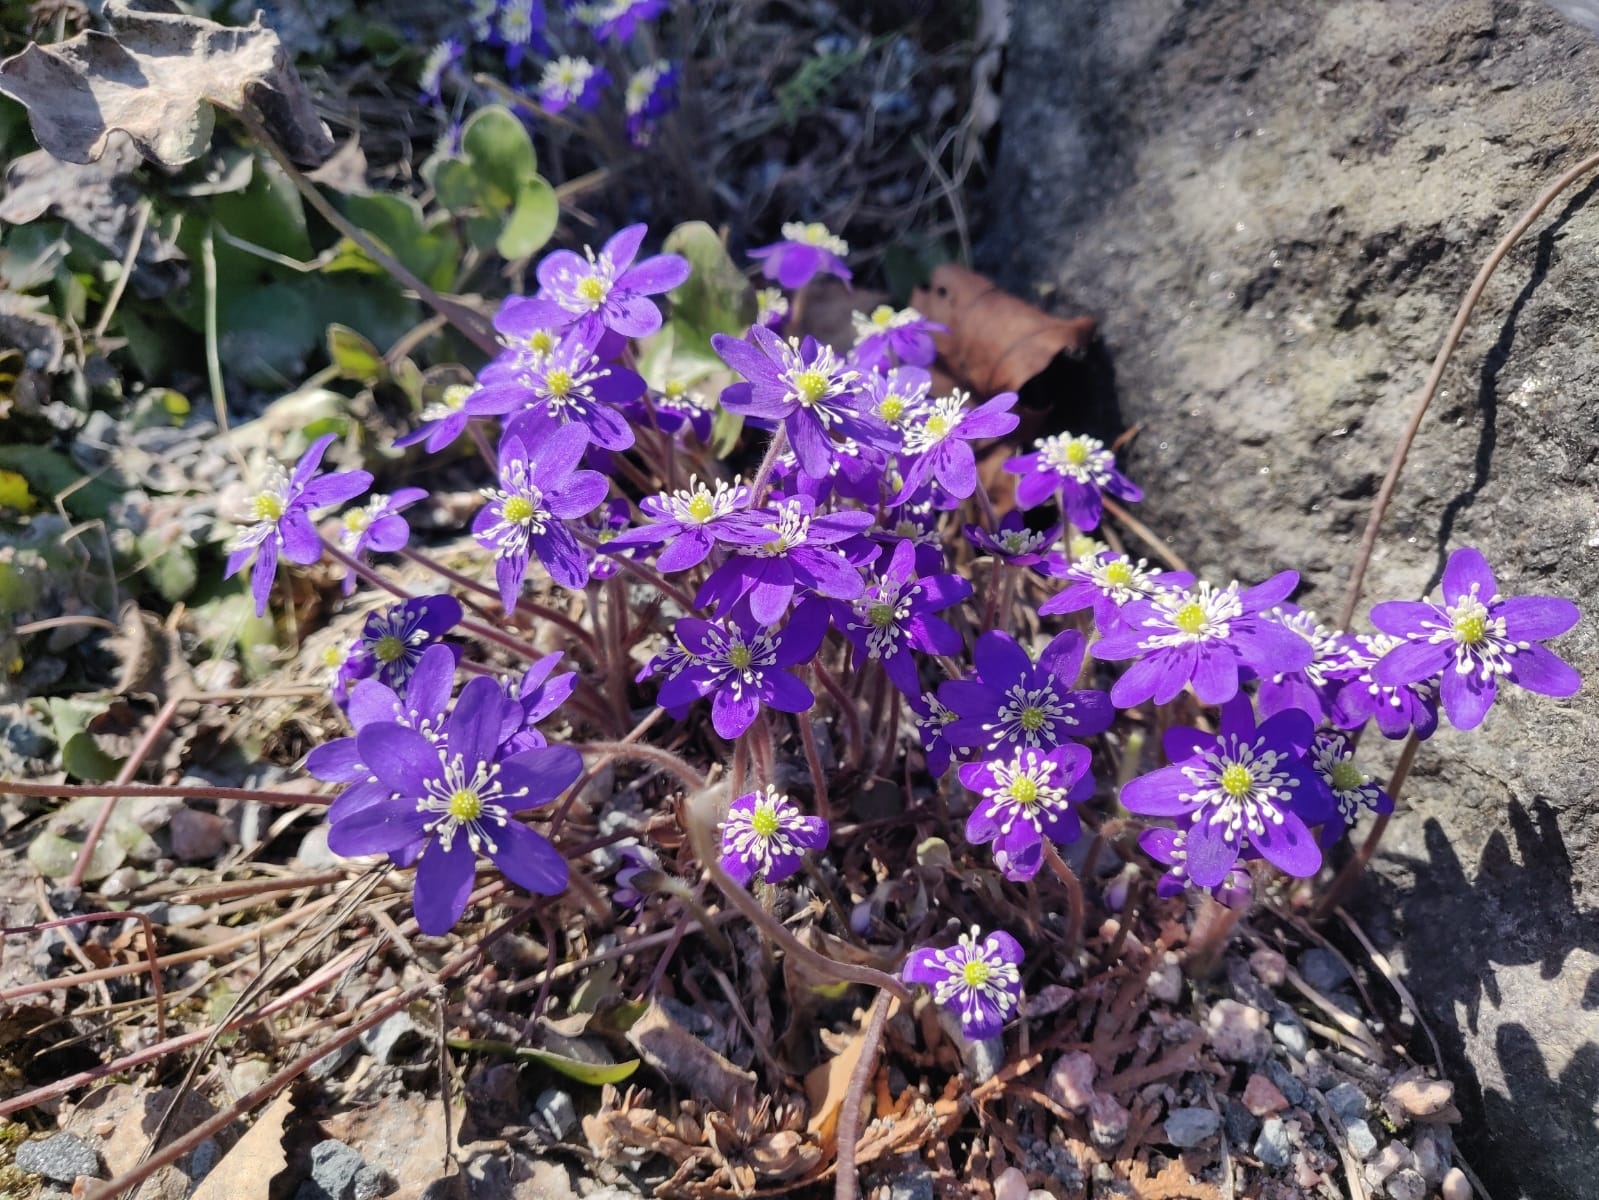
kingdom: Plantae
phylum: Tracheophyta
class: Magnoliopsida
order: Ranunculales
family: Ranunculaceae
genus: Hepatica
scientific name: Hepatica nobilis
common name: Liverleaf
